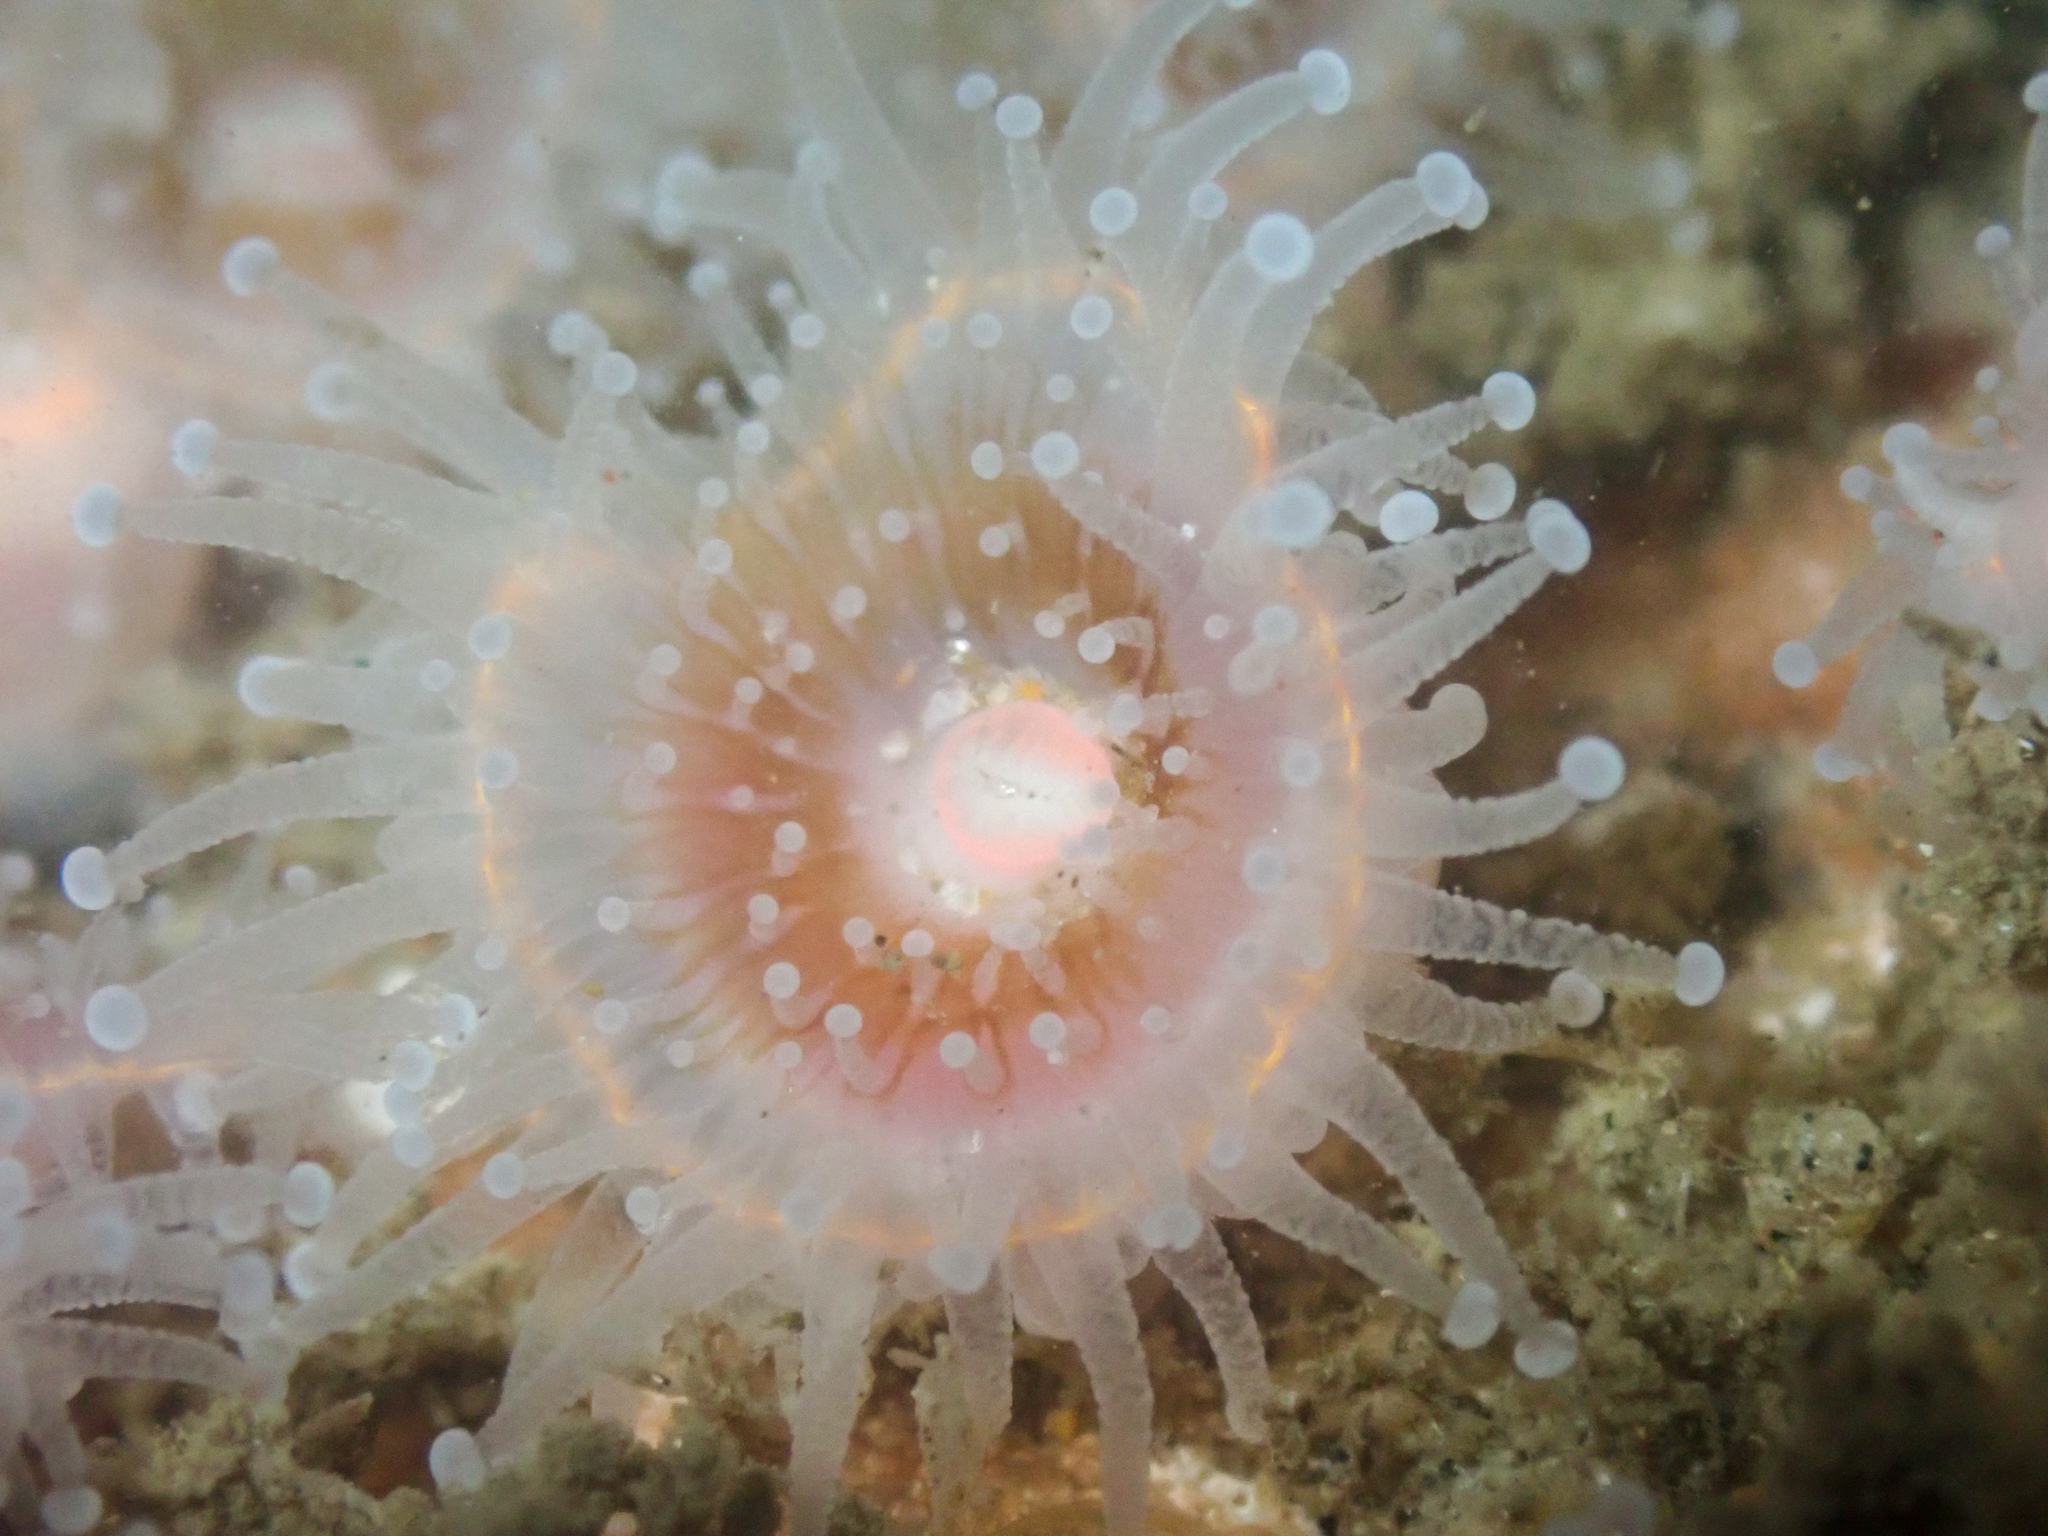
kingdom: Animalia
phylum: Cnidaria
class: Anthozoa
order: Corallimorpharia
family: Corallimorphidae
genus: Corynactis
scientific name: Corynactis californica
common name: Strawberry corallimorpharian
